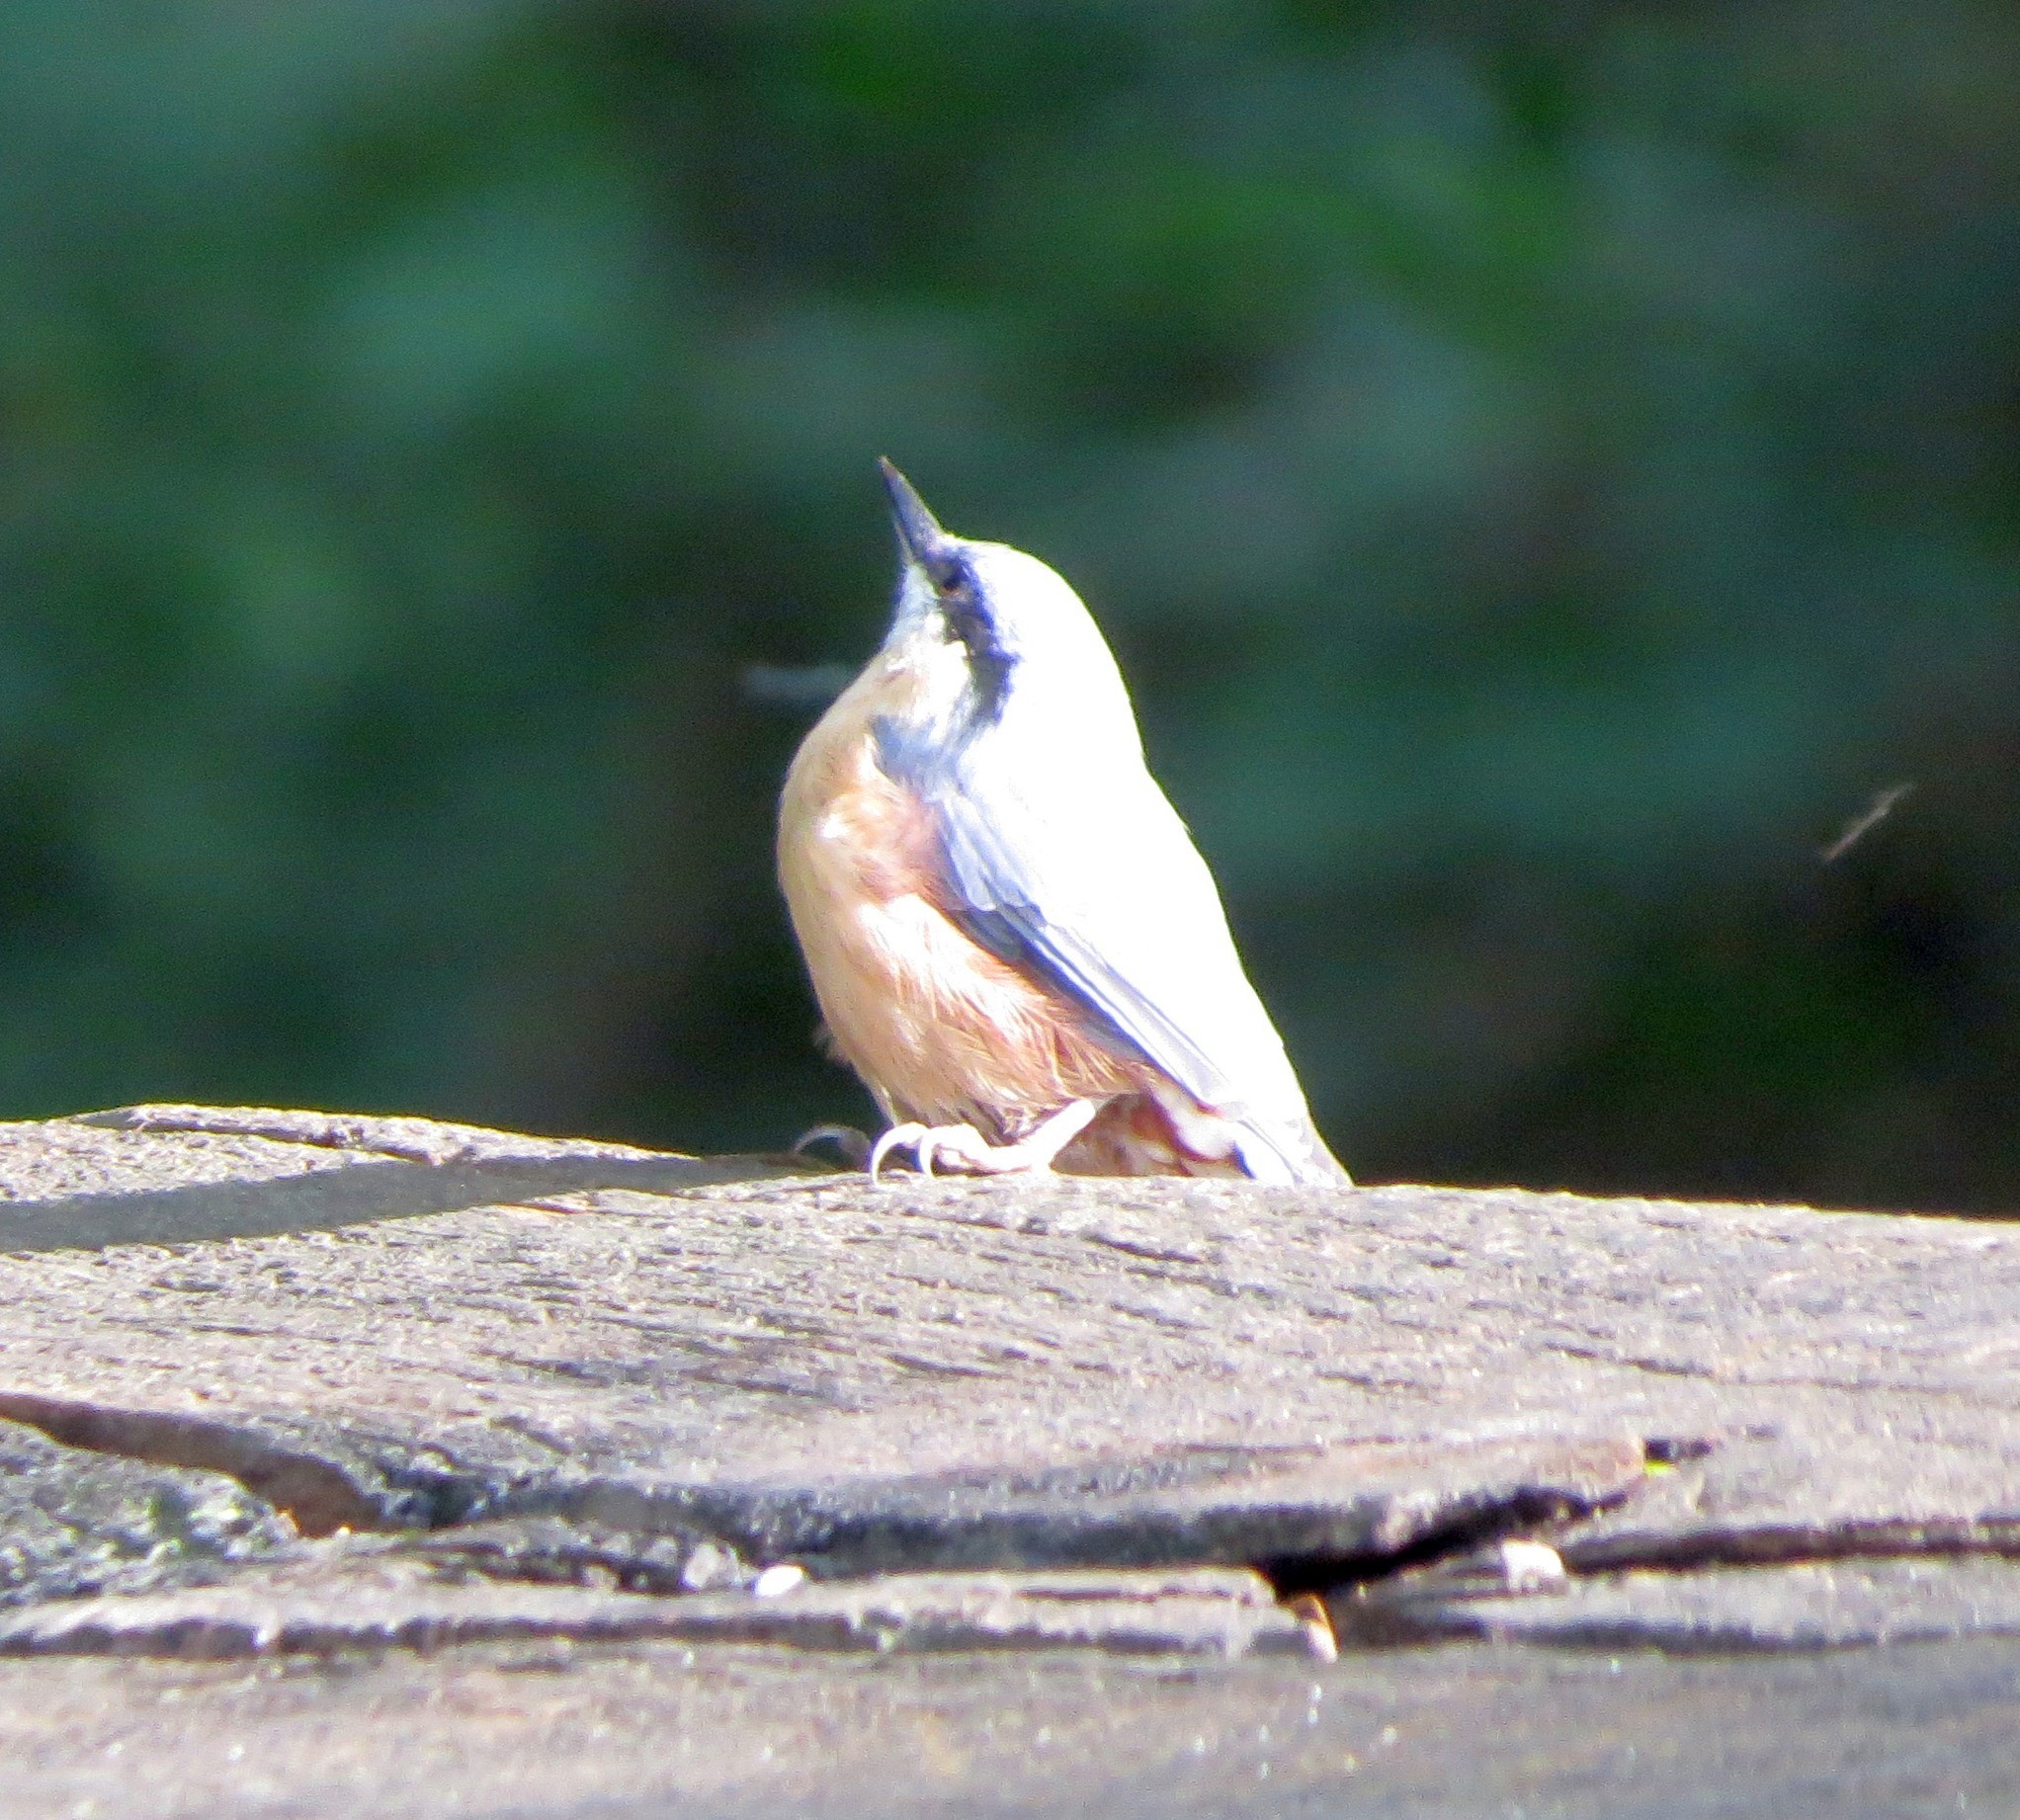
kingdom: Animalia
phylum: Chordata
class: Aves
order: Passeriformes
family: Sittidae
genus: Sitta
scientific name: Sitta europaea
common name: Eurasian nuthatch
